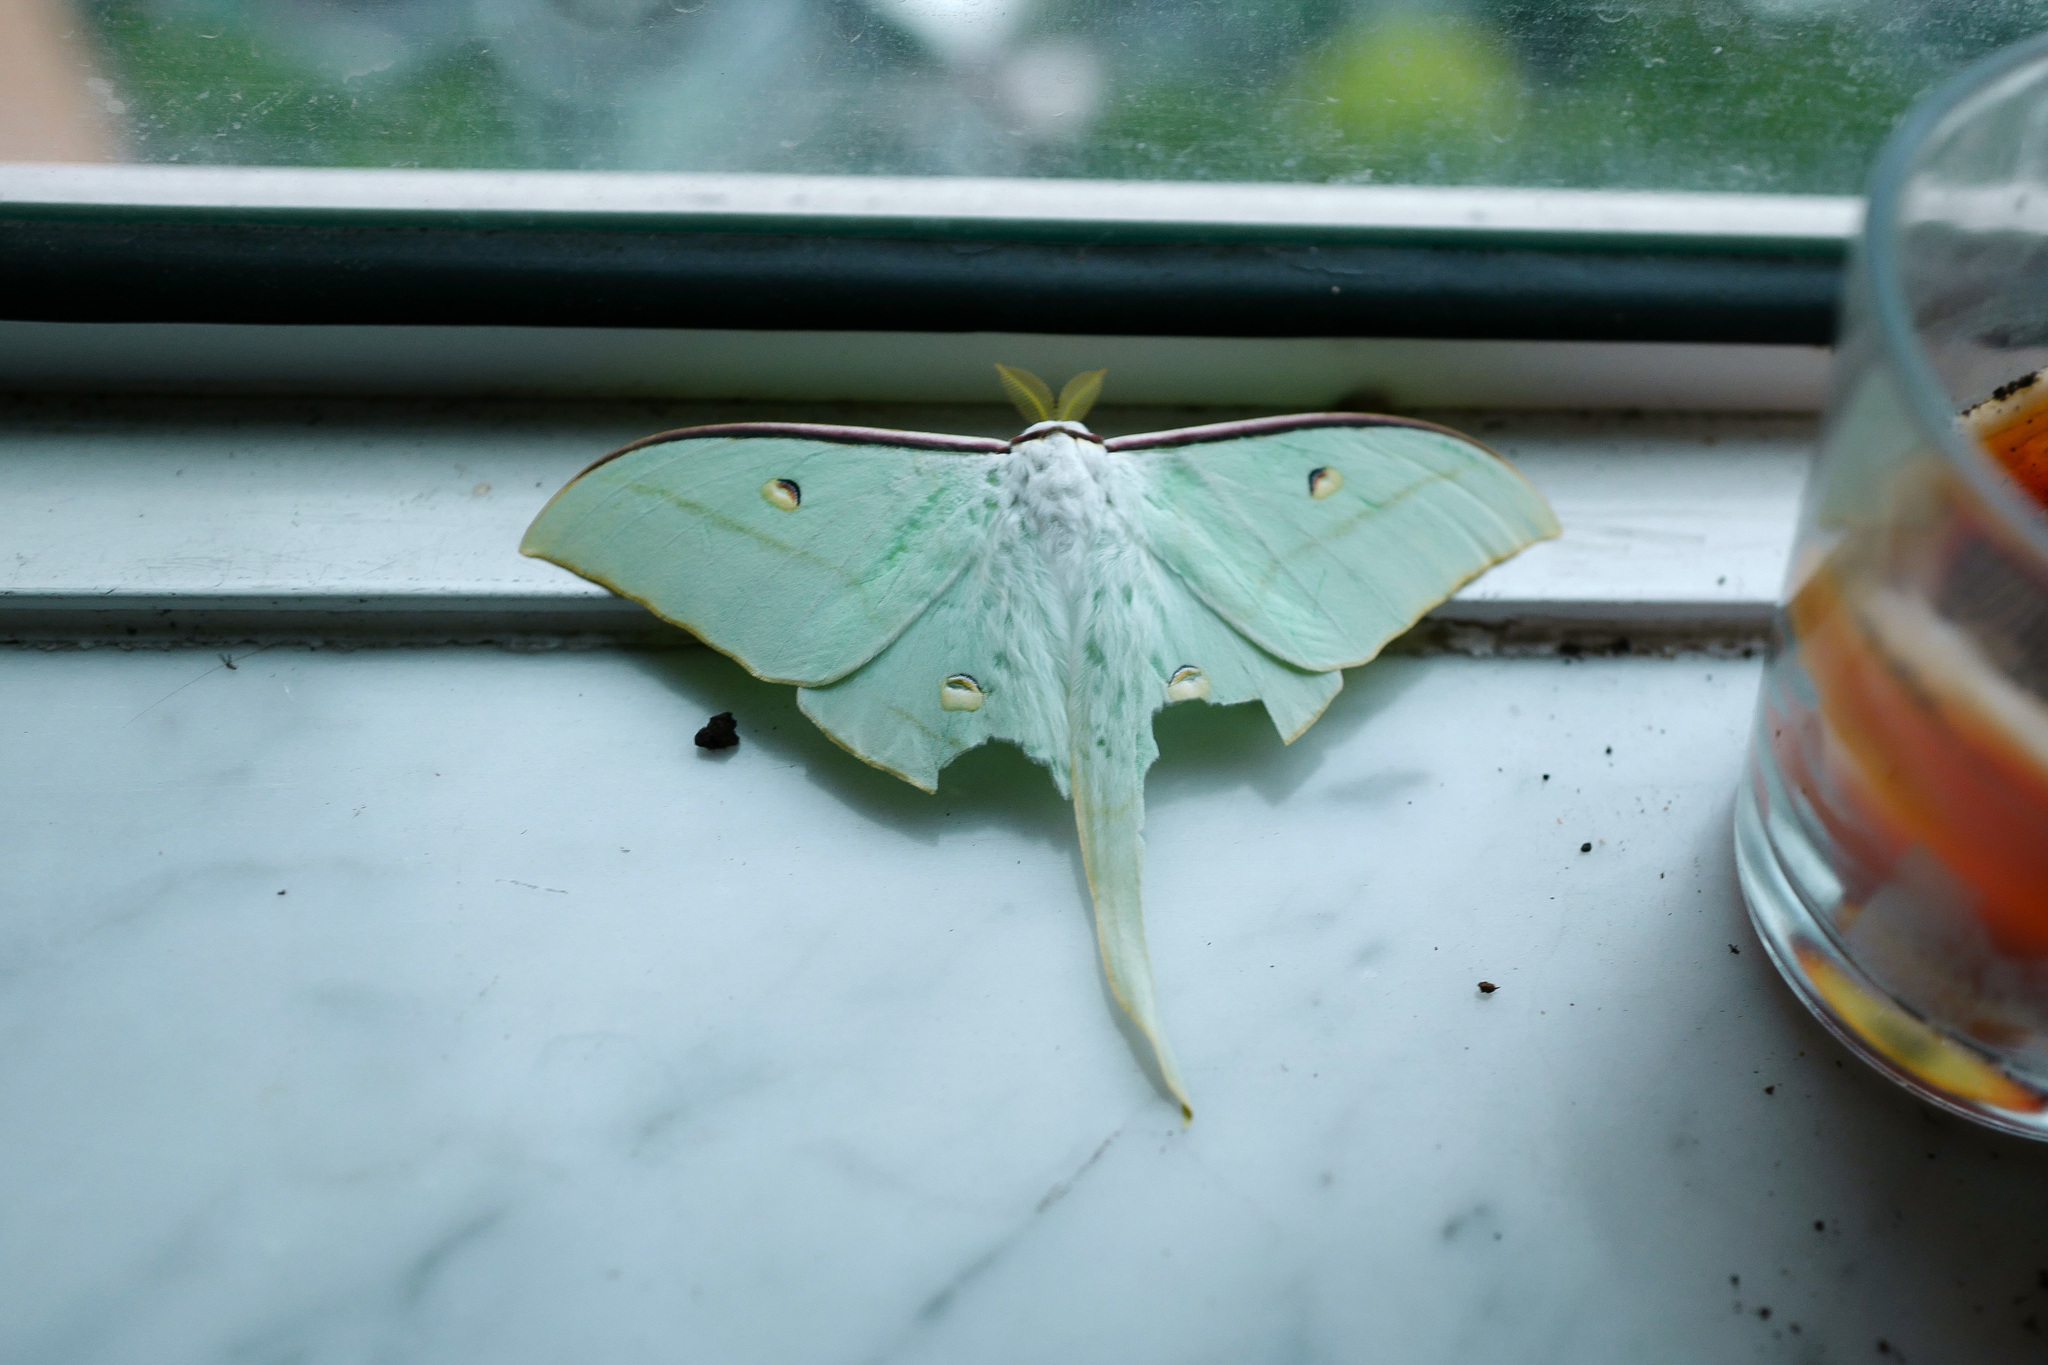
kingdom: Animalia
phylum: Arthropoda
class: Insecta
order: Lepidoptera
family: Saturniidae
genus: Actias
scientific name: Actias ningpoana
